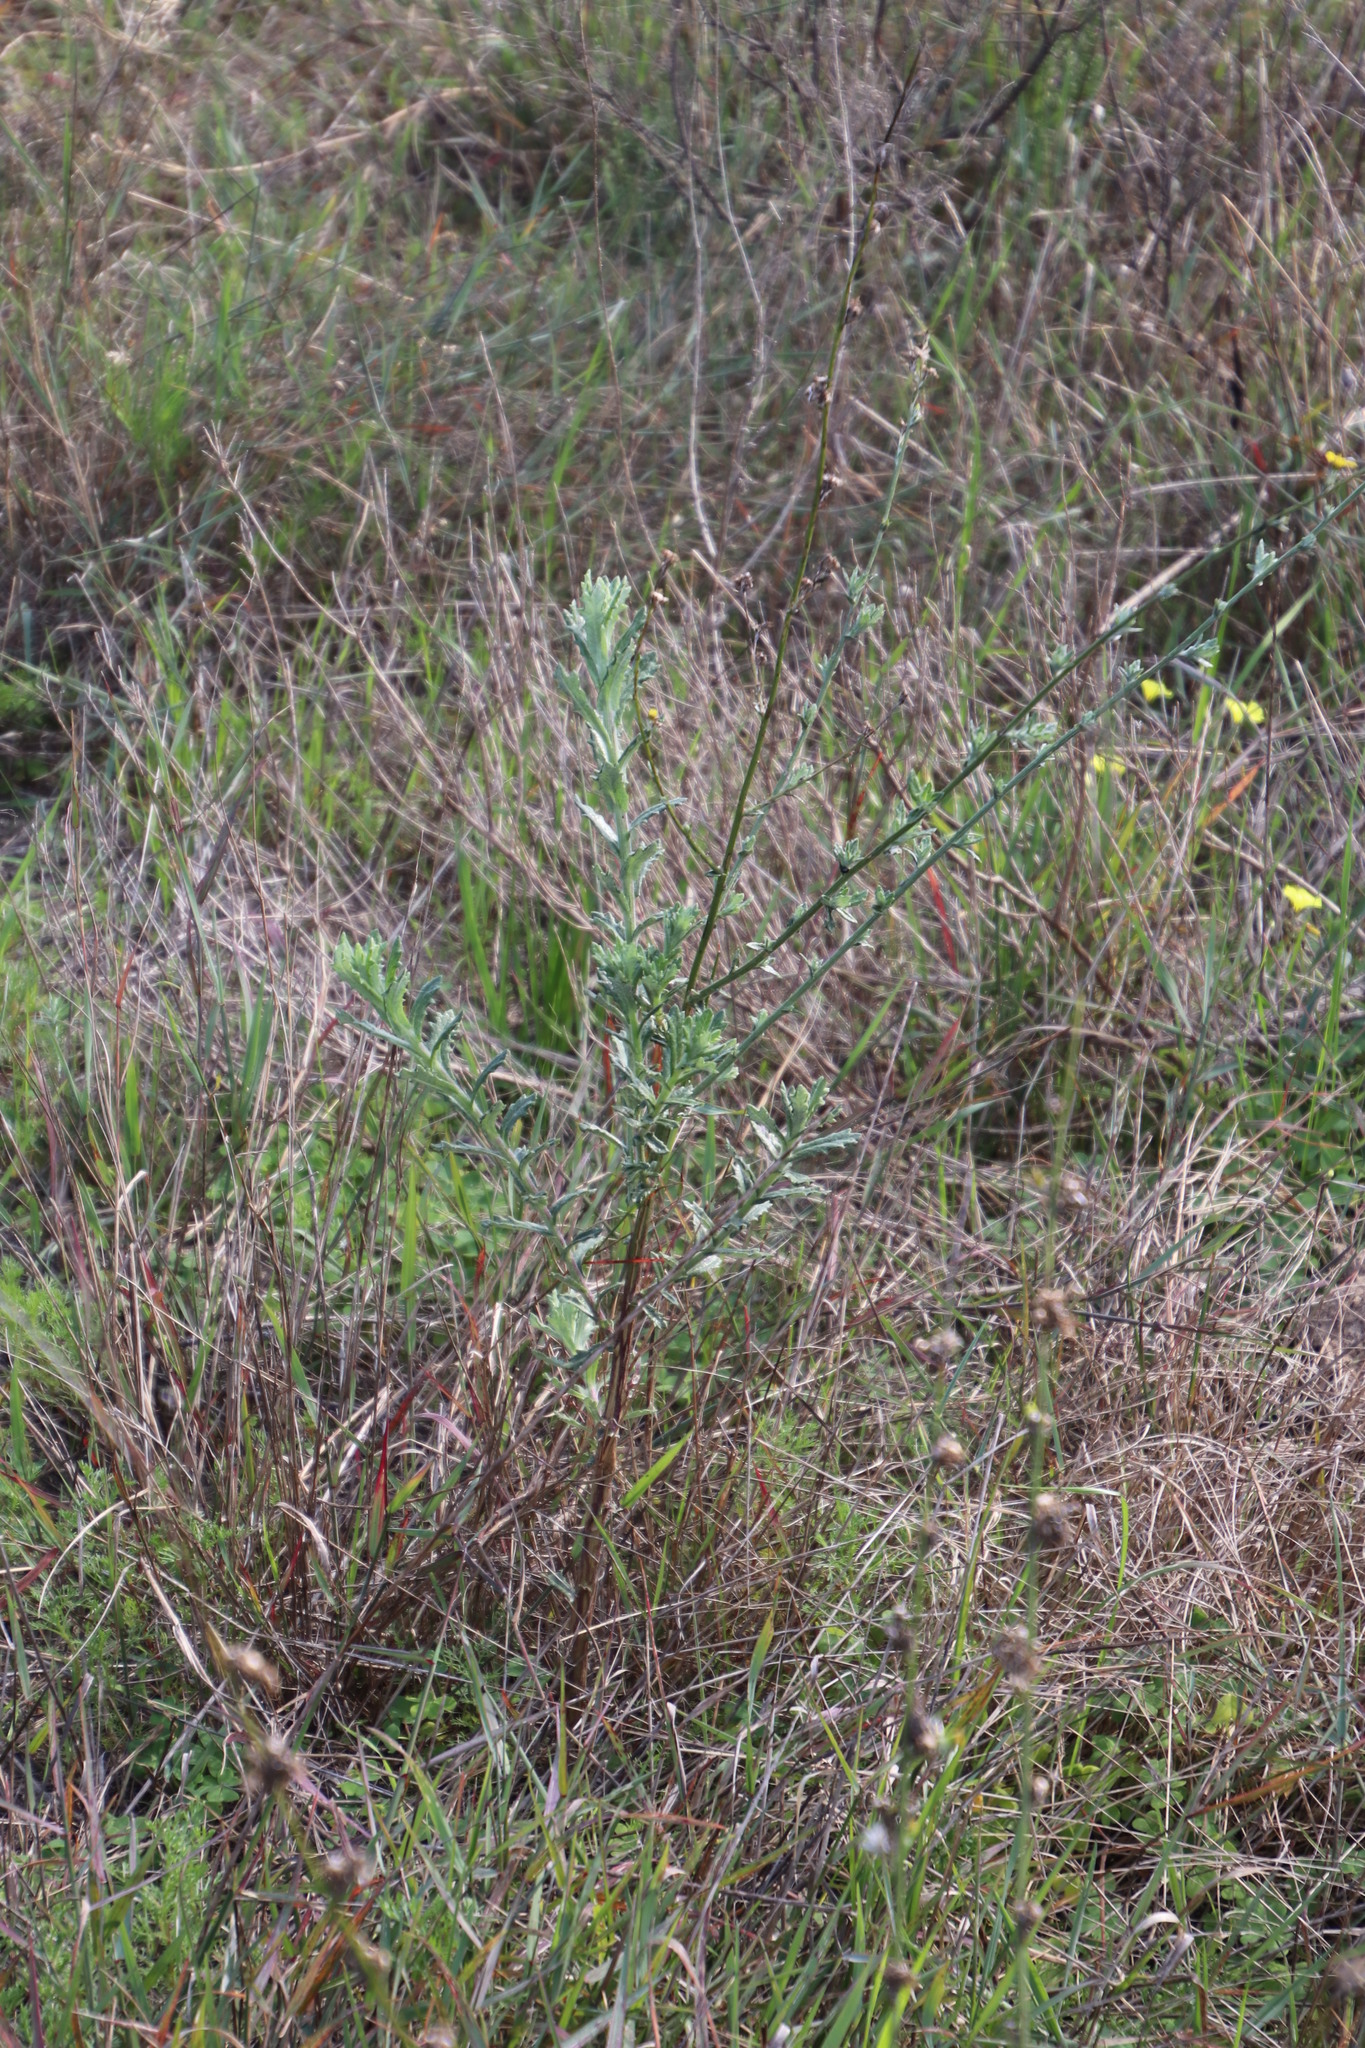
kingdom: Plantae
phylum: Tracheophyta
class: Magnoliopsida
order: Asterales
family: Asteraceae
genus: Senecio
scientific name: Senecio pubigerus
